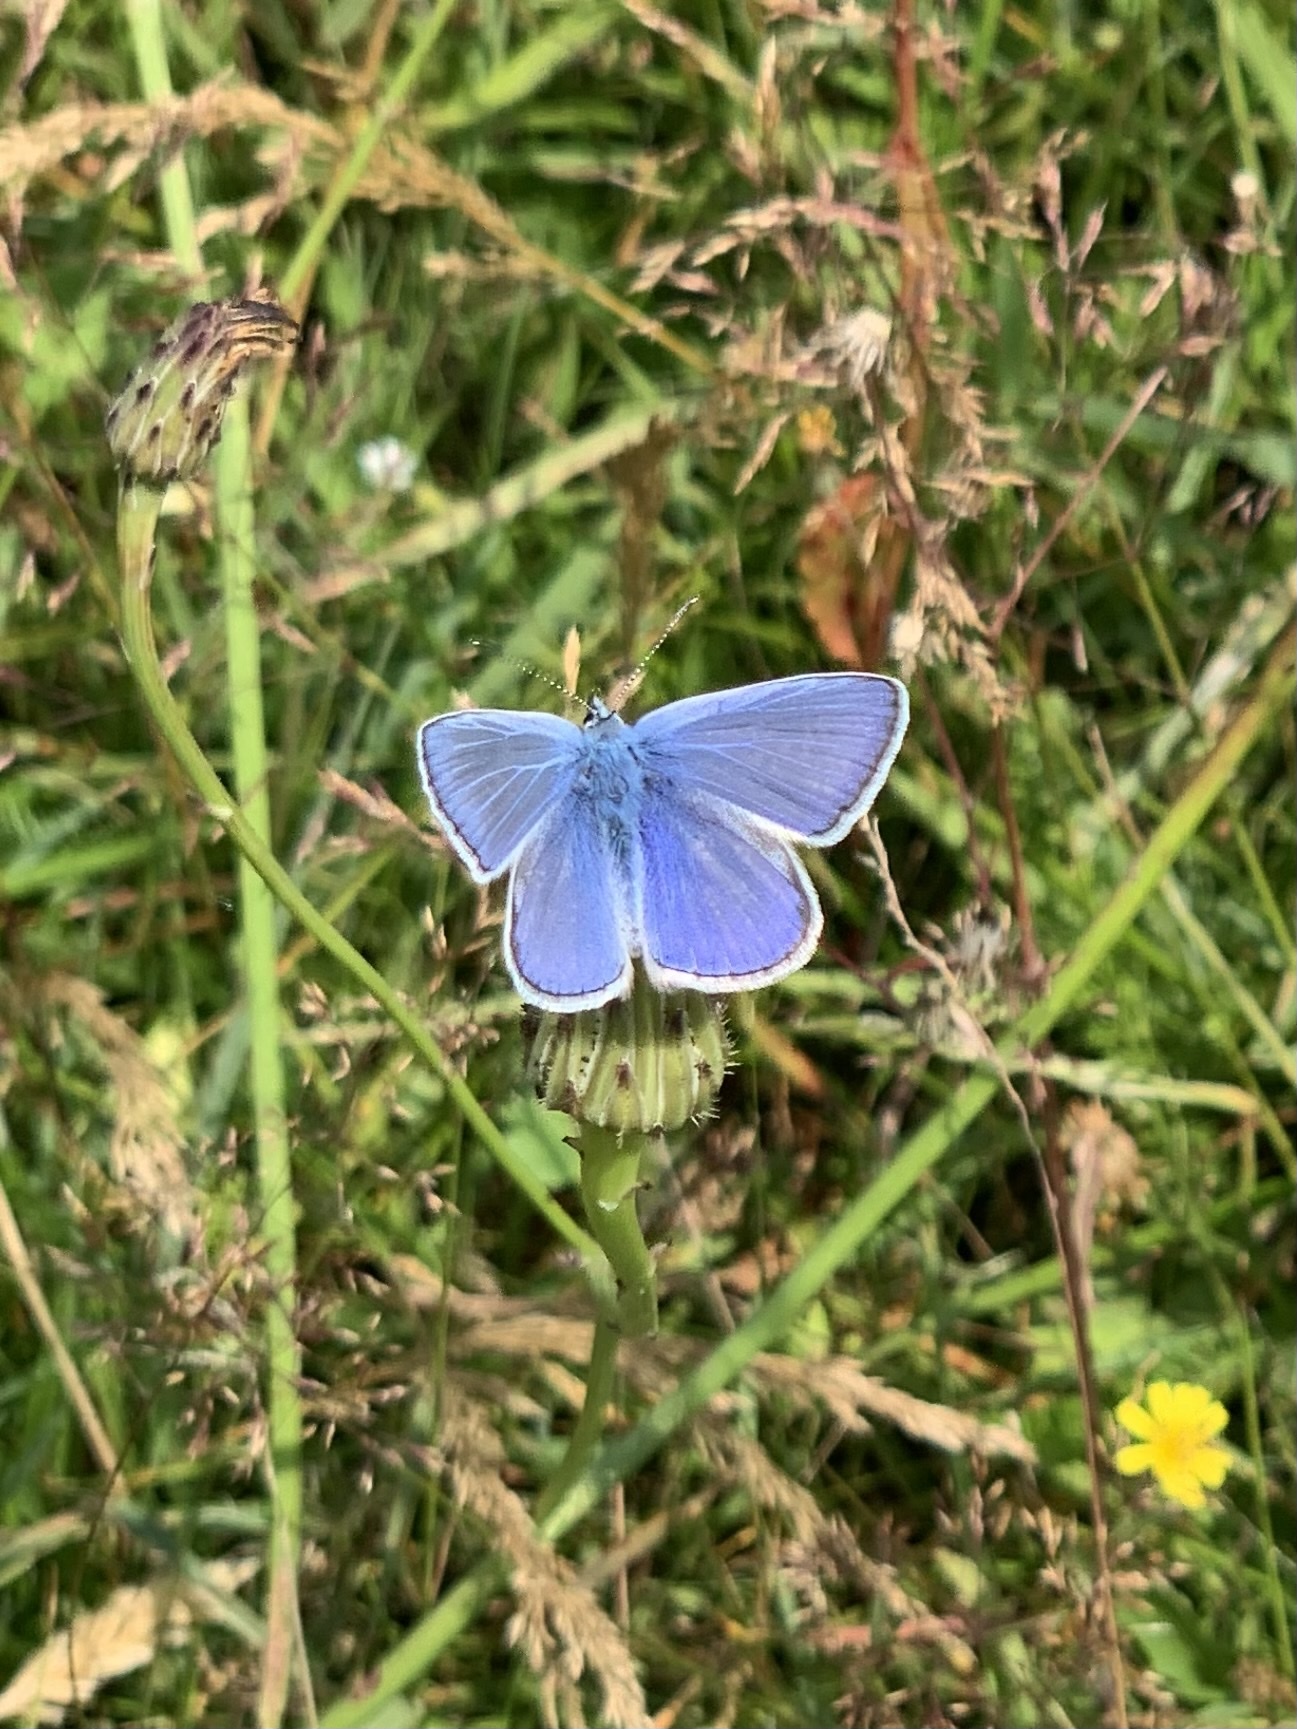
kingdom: Animalia
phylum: Arthropoda
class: Insecta
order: Lepidoptera
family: Lycaenidae
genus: Polyommatus
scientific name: Polyommatus icarus
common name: Common blue
